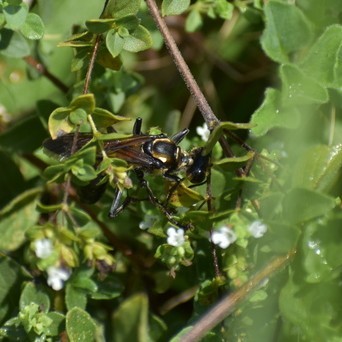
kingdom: Animalia
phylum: Arthropoda
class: Insecta
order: Hymenoptera
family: Sphecidae
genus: Sphex
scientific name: Sphex habenus
